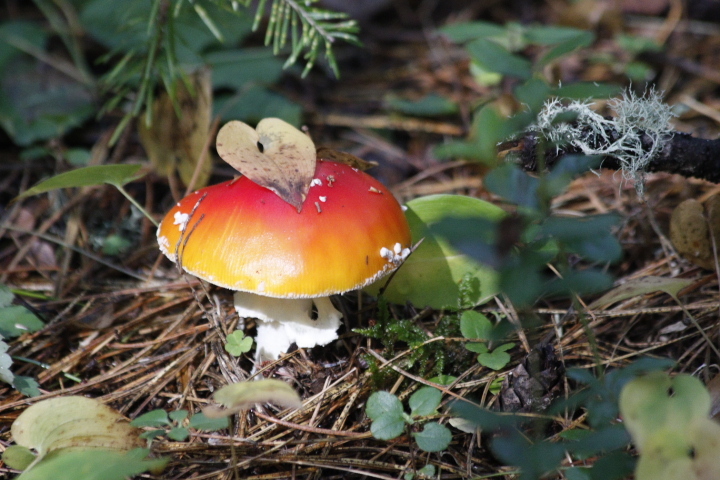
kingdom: Fungi
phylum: Basidiomycota
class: Agaricomycetes
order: Agaricales
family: Amanitaceae
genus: Amanita
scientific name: Amanita muscaria
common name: Fly agaric
